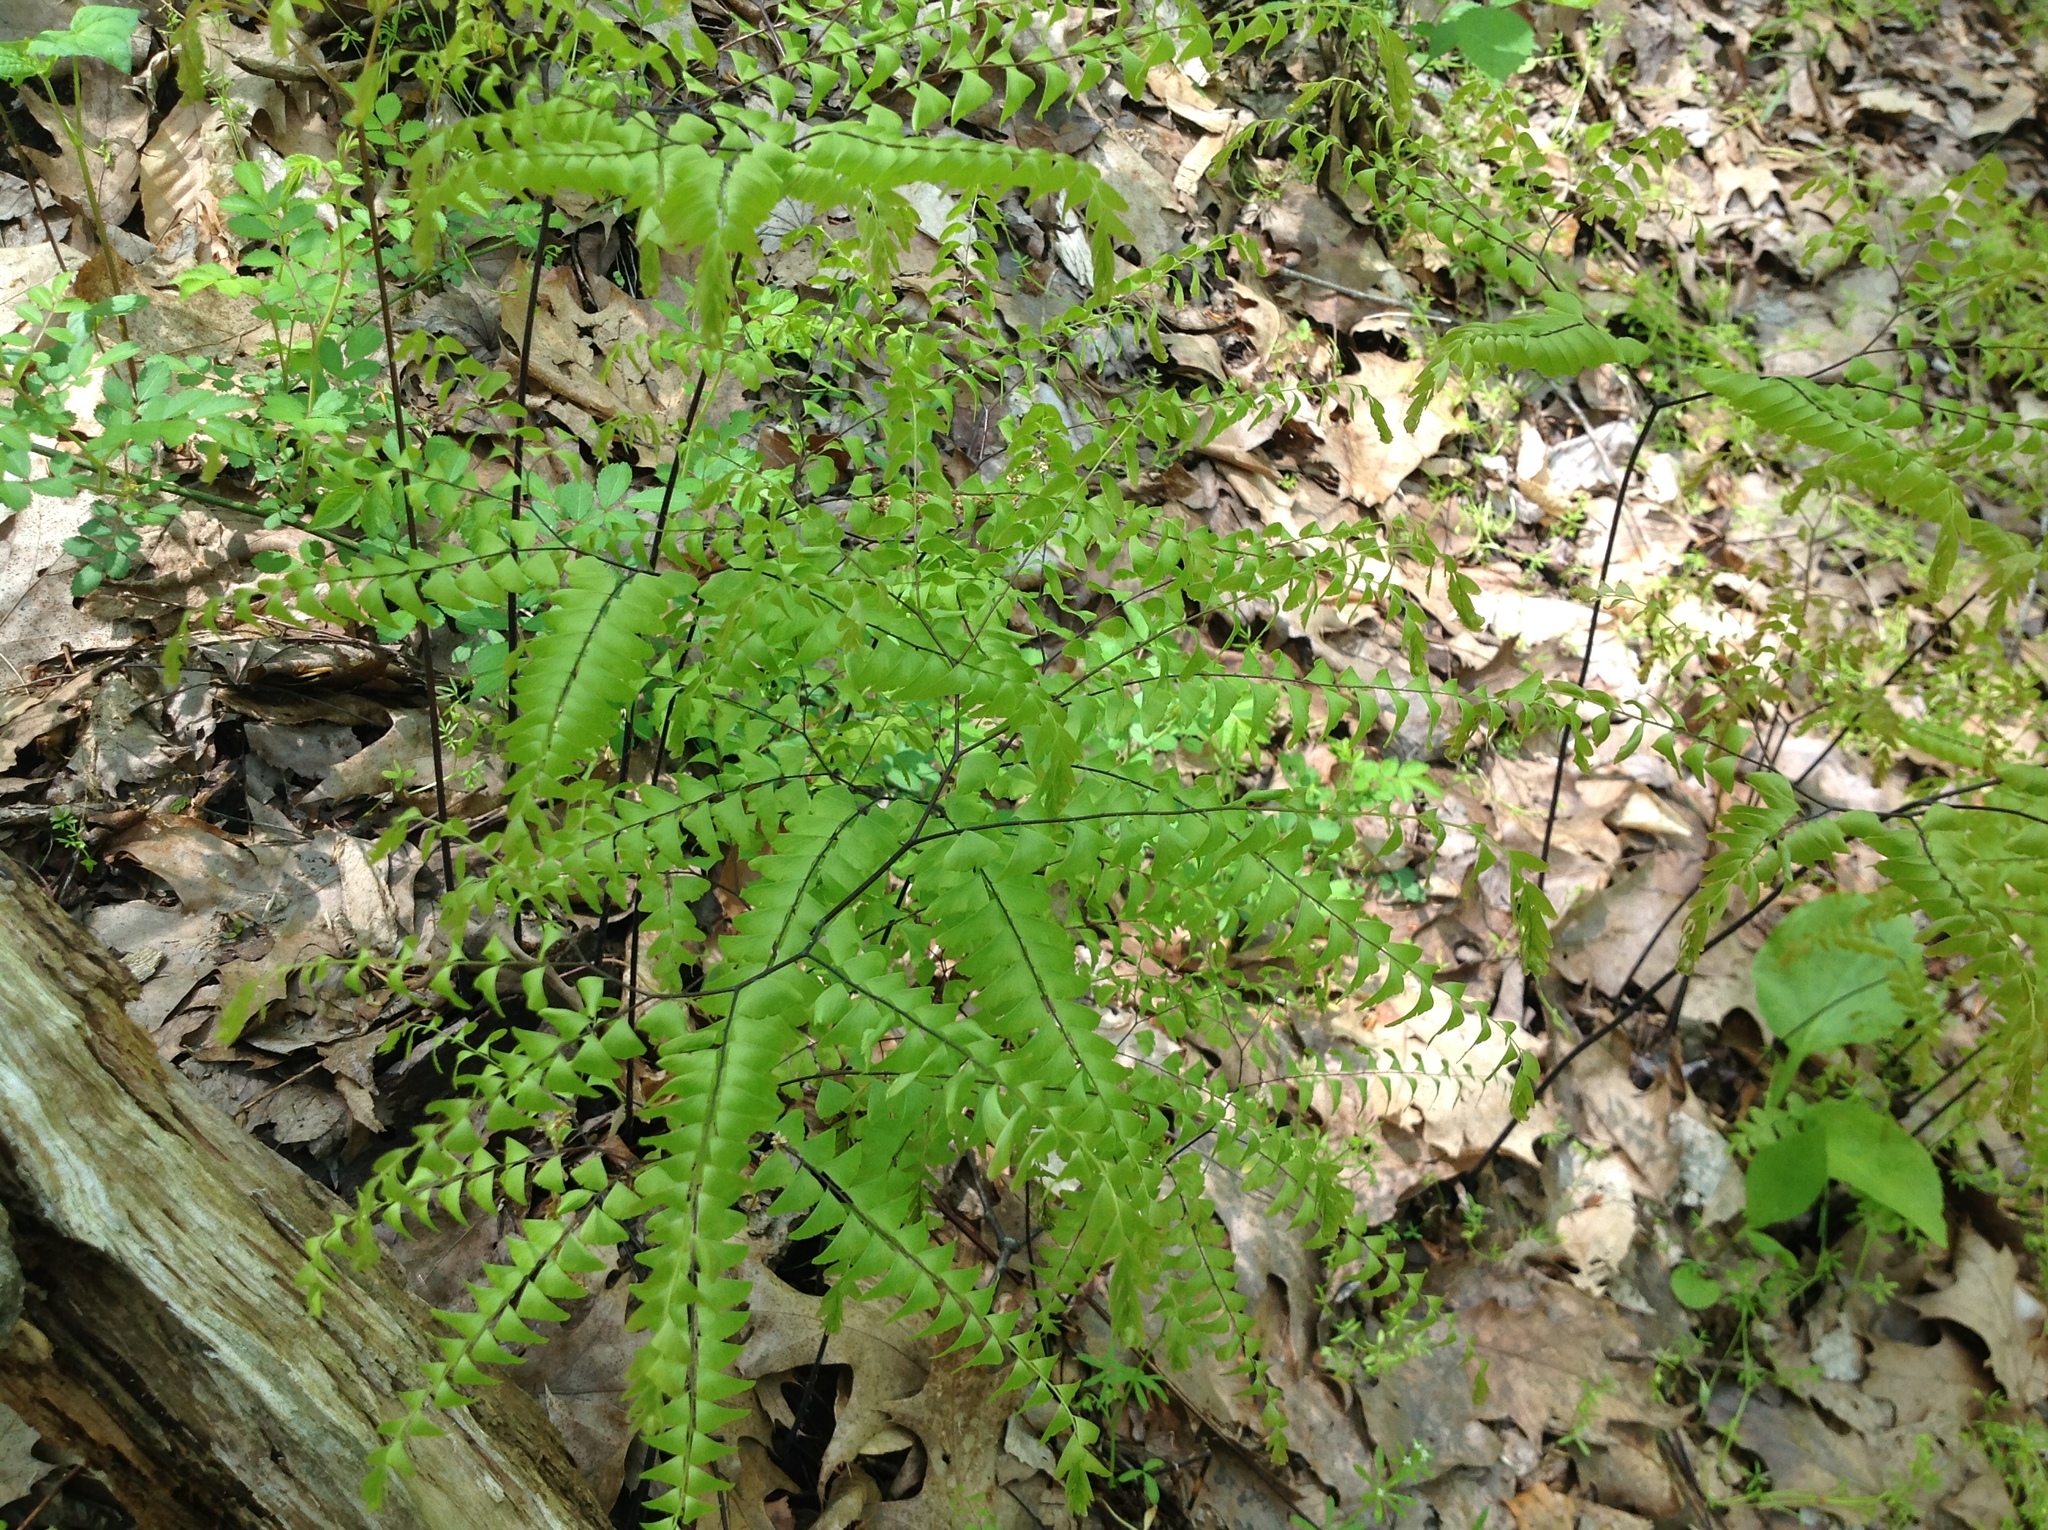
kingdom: Plantae
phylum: Tracheophyta
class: Polypodiopsida
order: Polypodiales
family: Pteridaceae
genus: Adiantum
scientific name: Adiantum pedatum
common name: Five-finger fern
